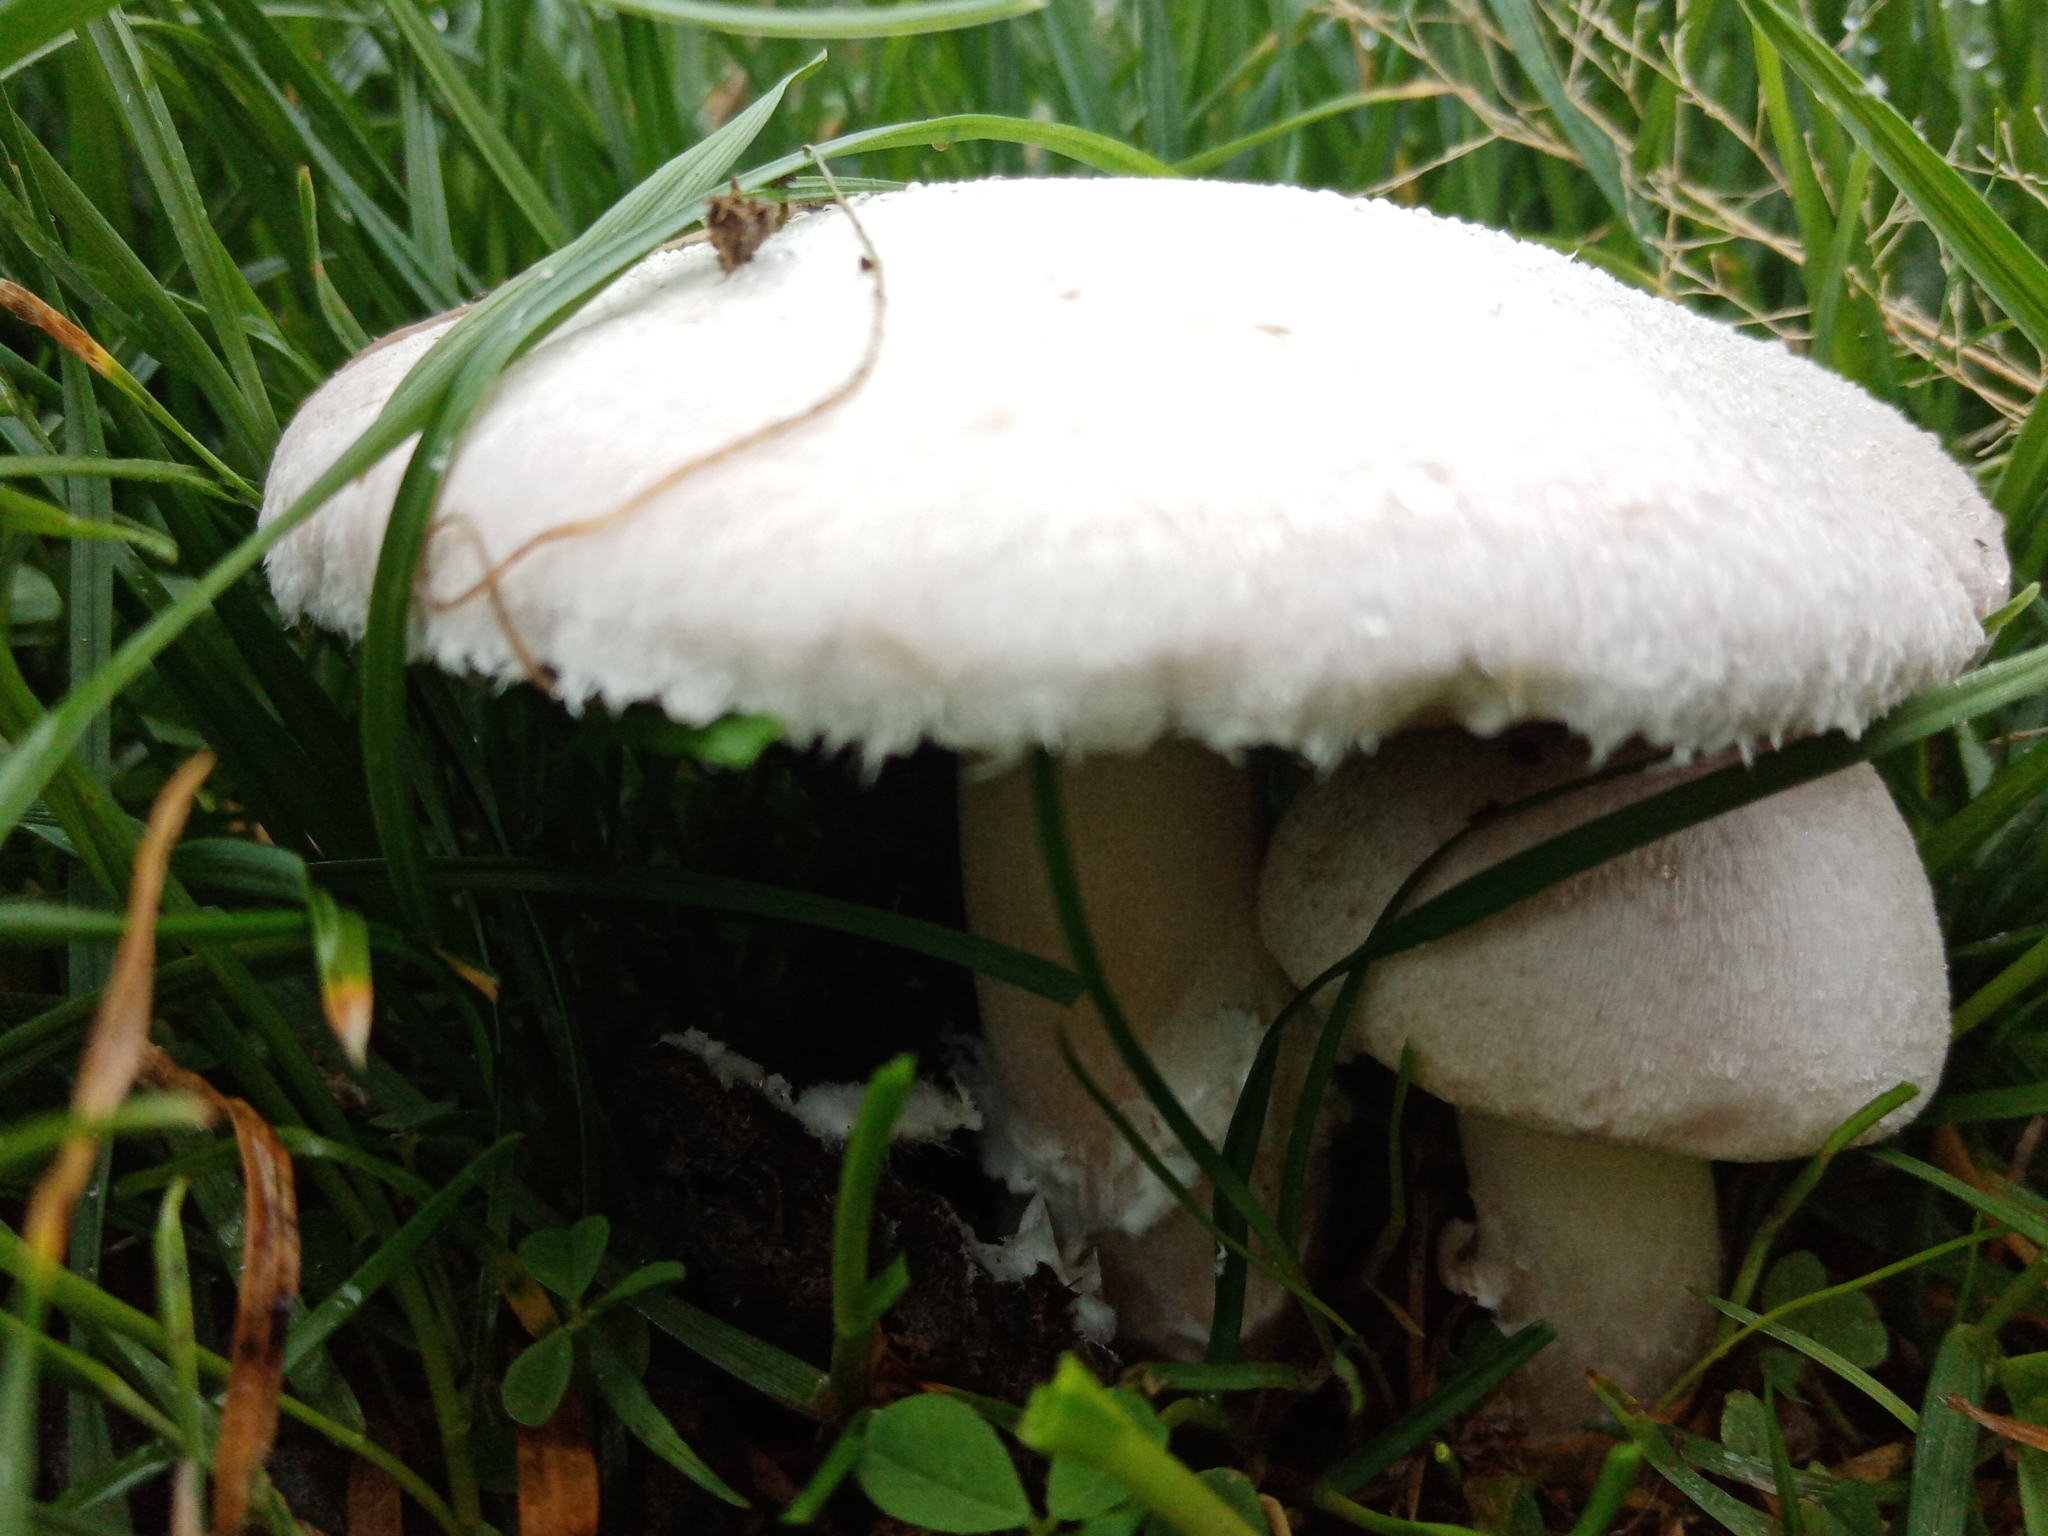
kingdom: Fungi
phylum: Basidiomycota
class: Agaricomycetes
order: Agaricales
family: Agaricaceae
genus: Agaricus
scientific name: Agaricus campestris
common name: Field mushroom
